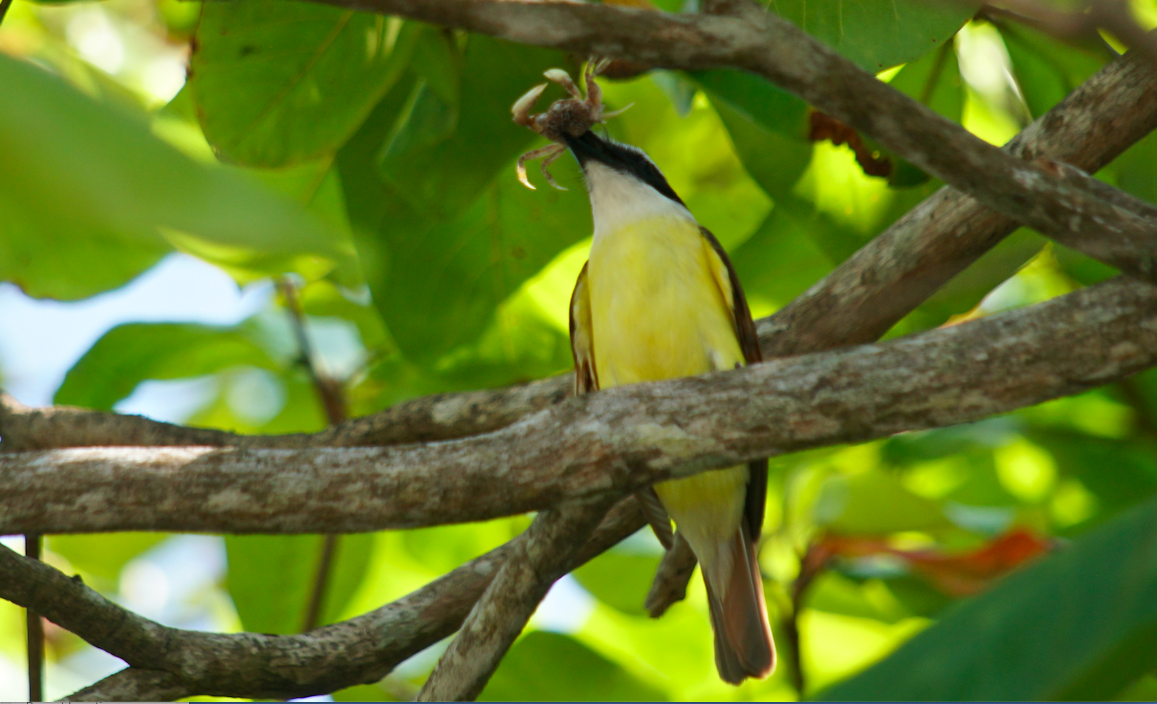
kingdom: Animalia
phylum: Chordata
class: Aves
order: Passeriformes
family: Tyrannidae
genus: Pitangus
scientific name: Pitangus sulphuratus
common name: Great kiskadee
